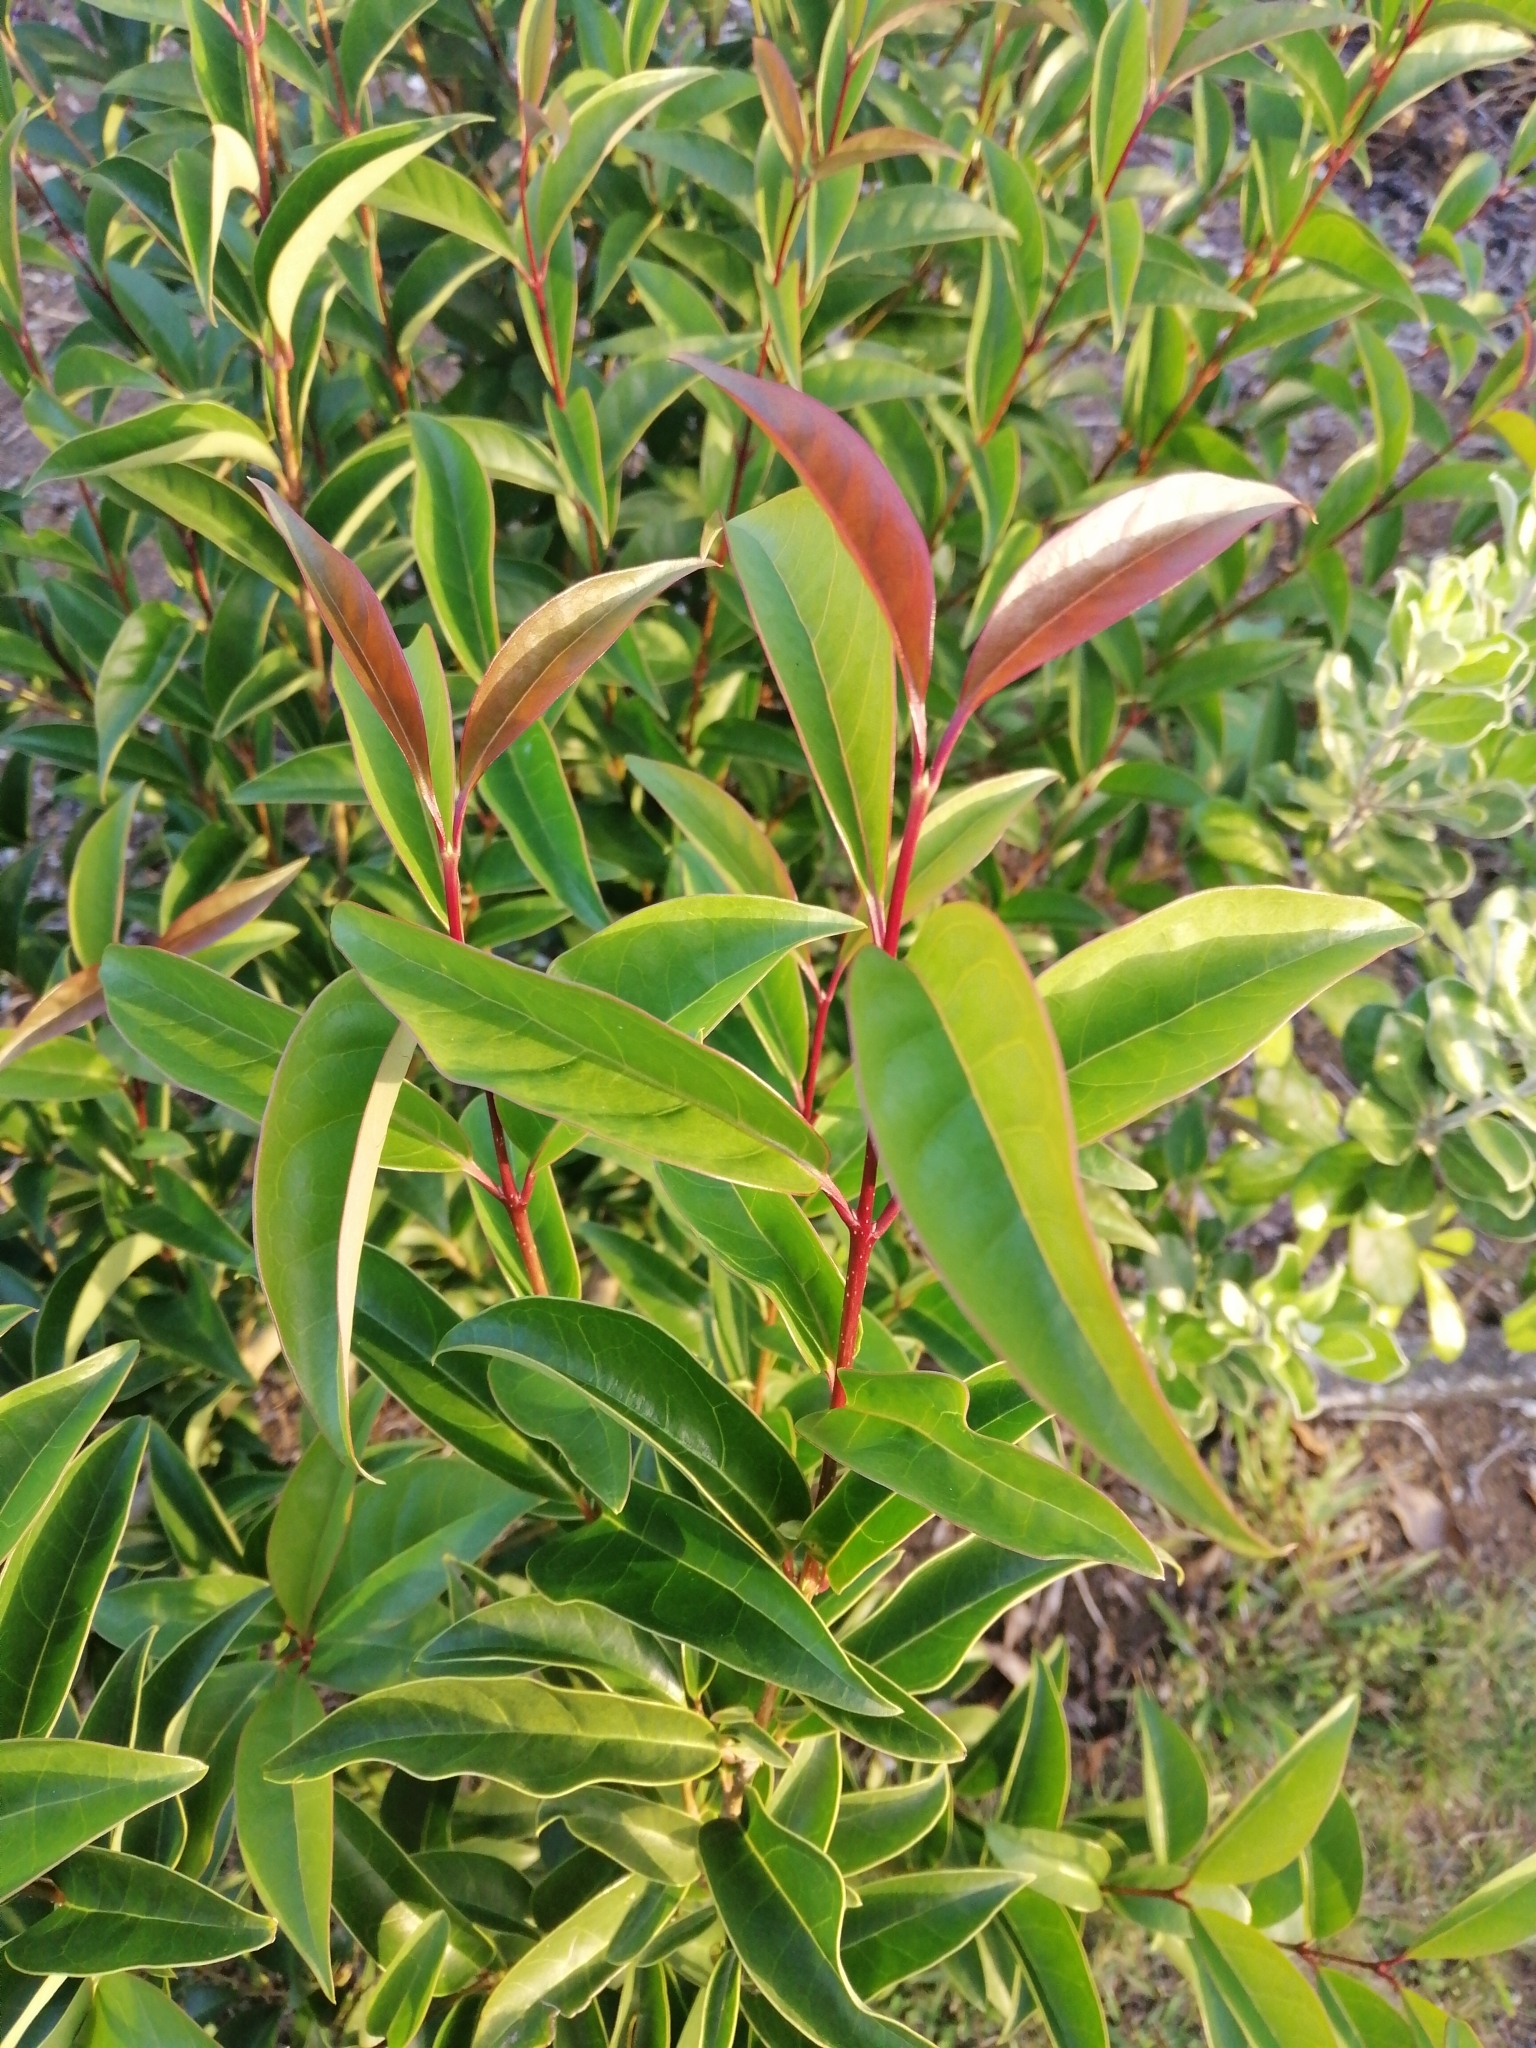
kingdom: Plantae
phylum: Tracheophyta
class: Magnoliopsida
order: Lamiales
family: Oleaceae
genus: Ligustrum
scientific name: Ligustrum lucidum
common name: Glossy privet
